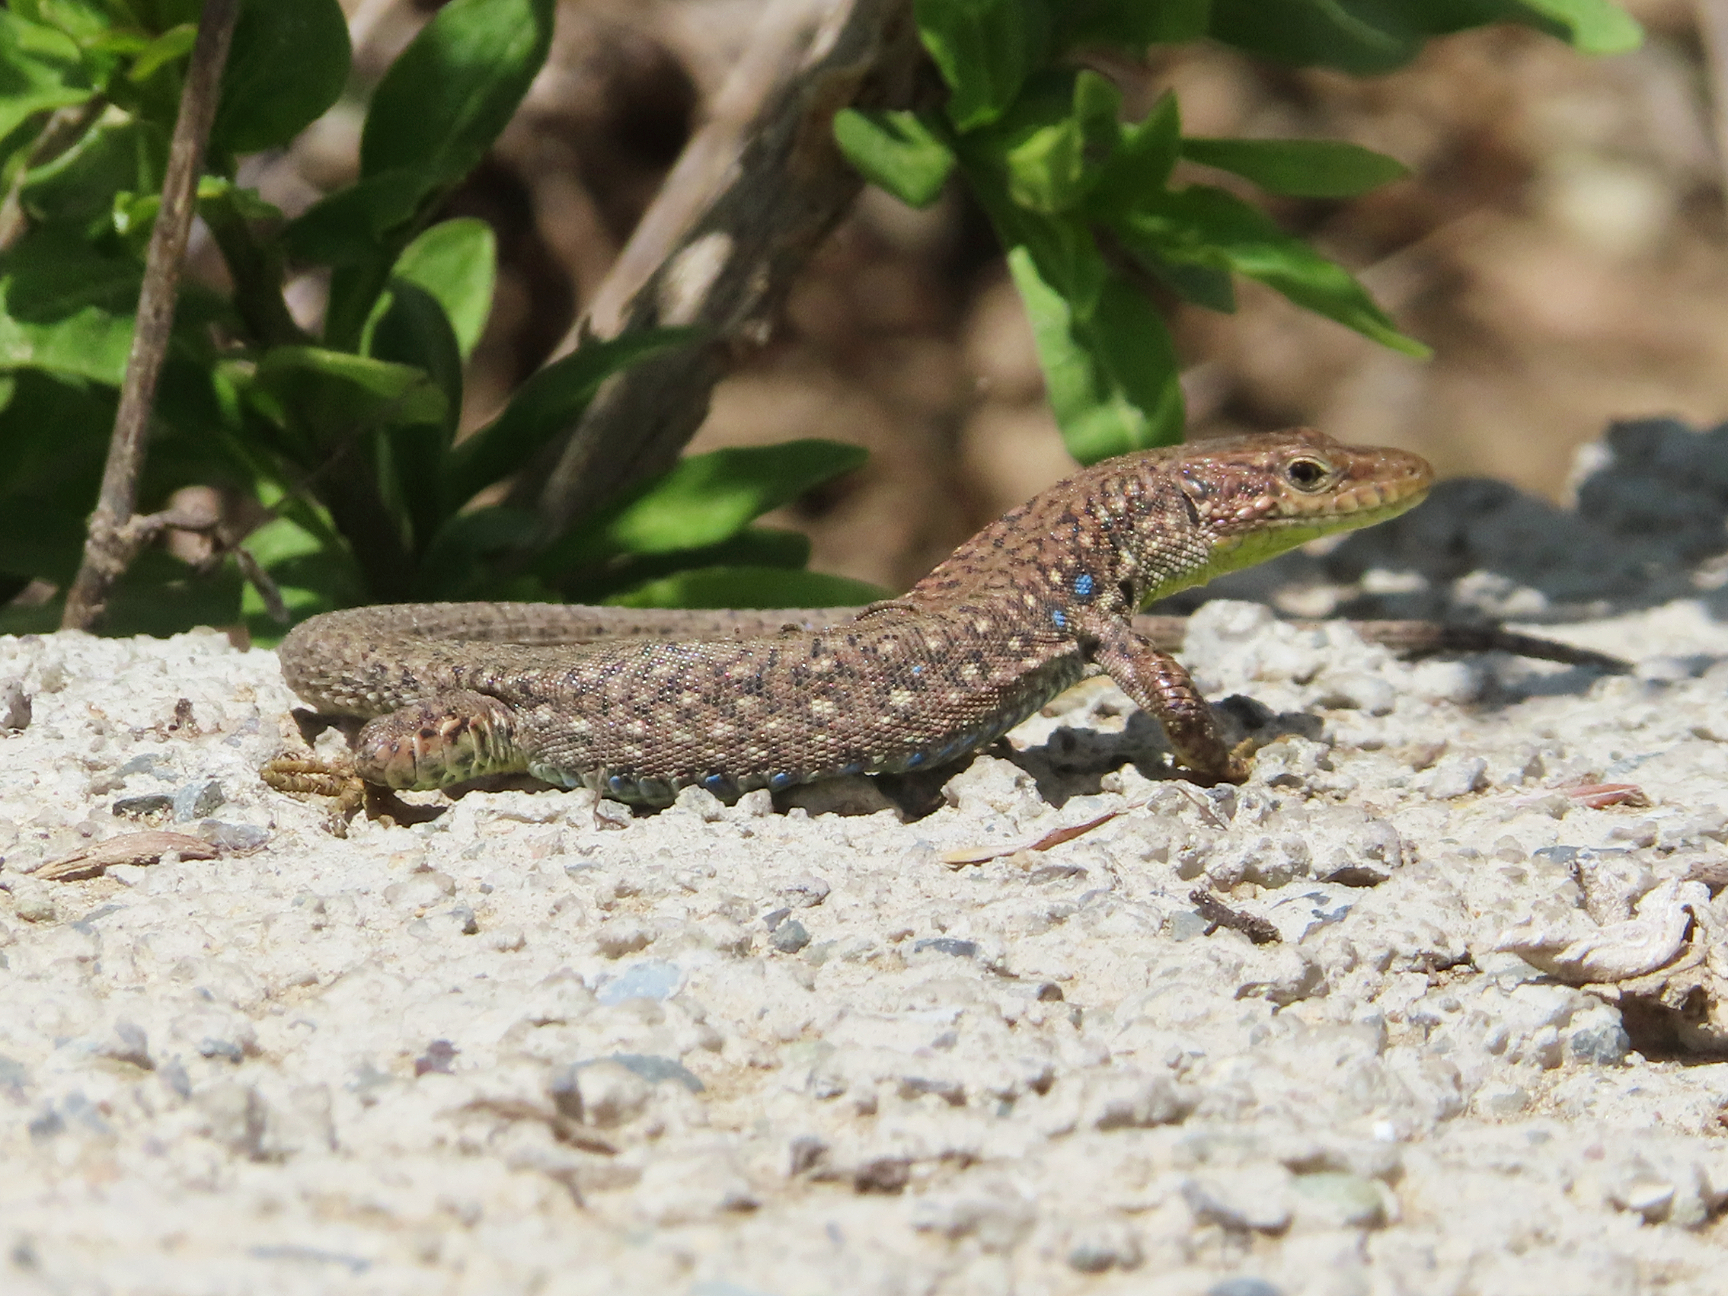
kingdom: Animalia
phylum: Chordata
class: Squamata
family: Lacertidae
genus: Darevskia
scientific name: Darevskia
